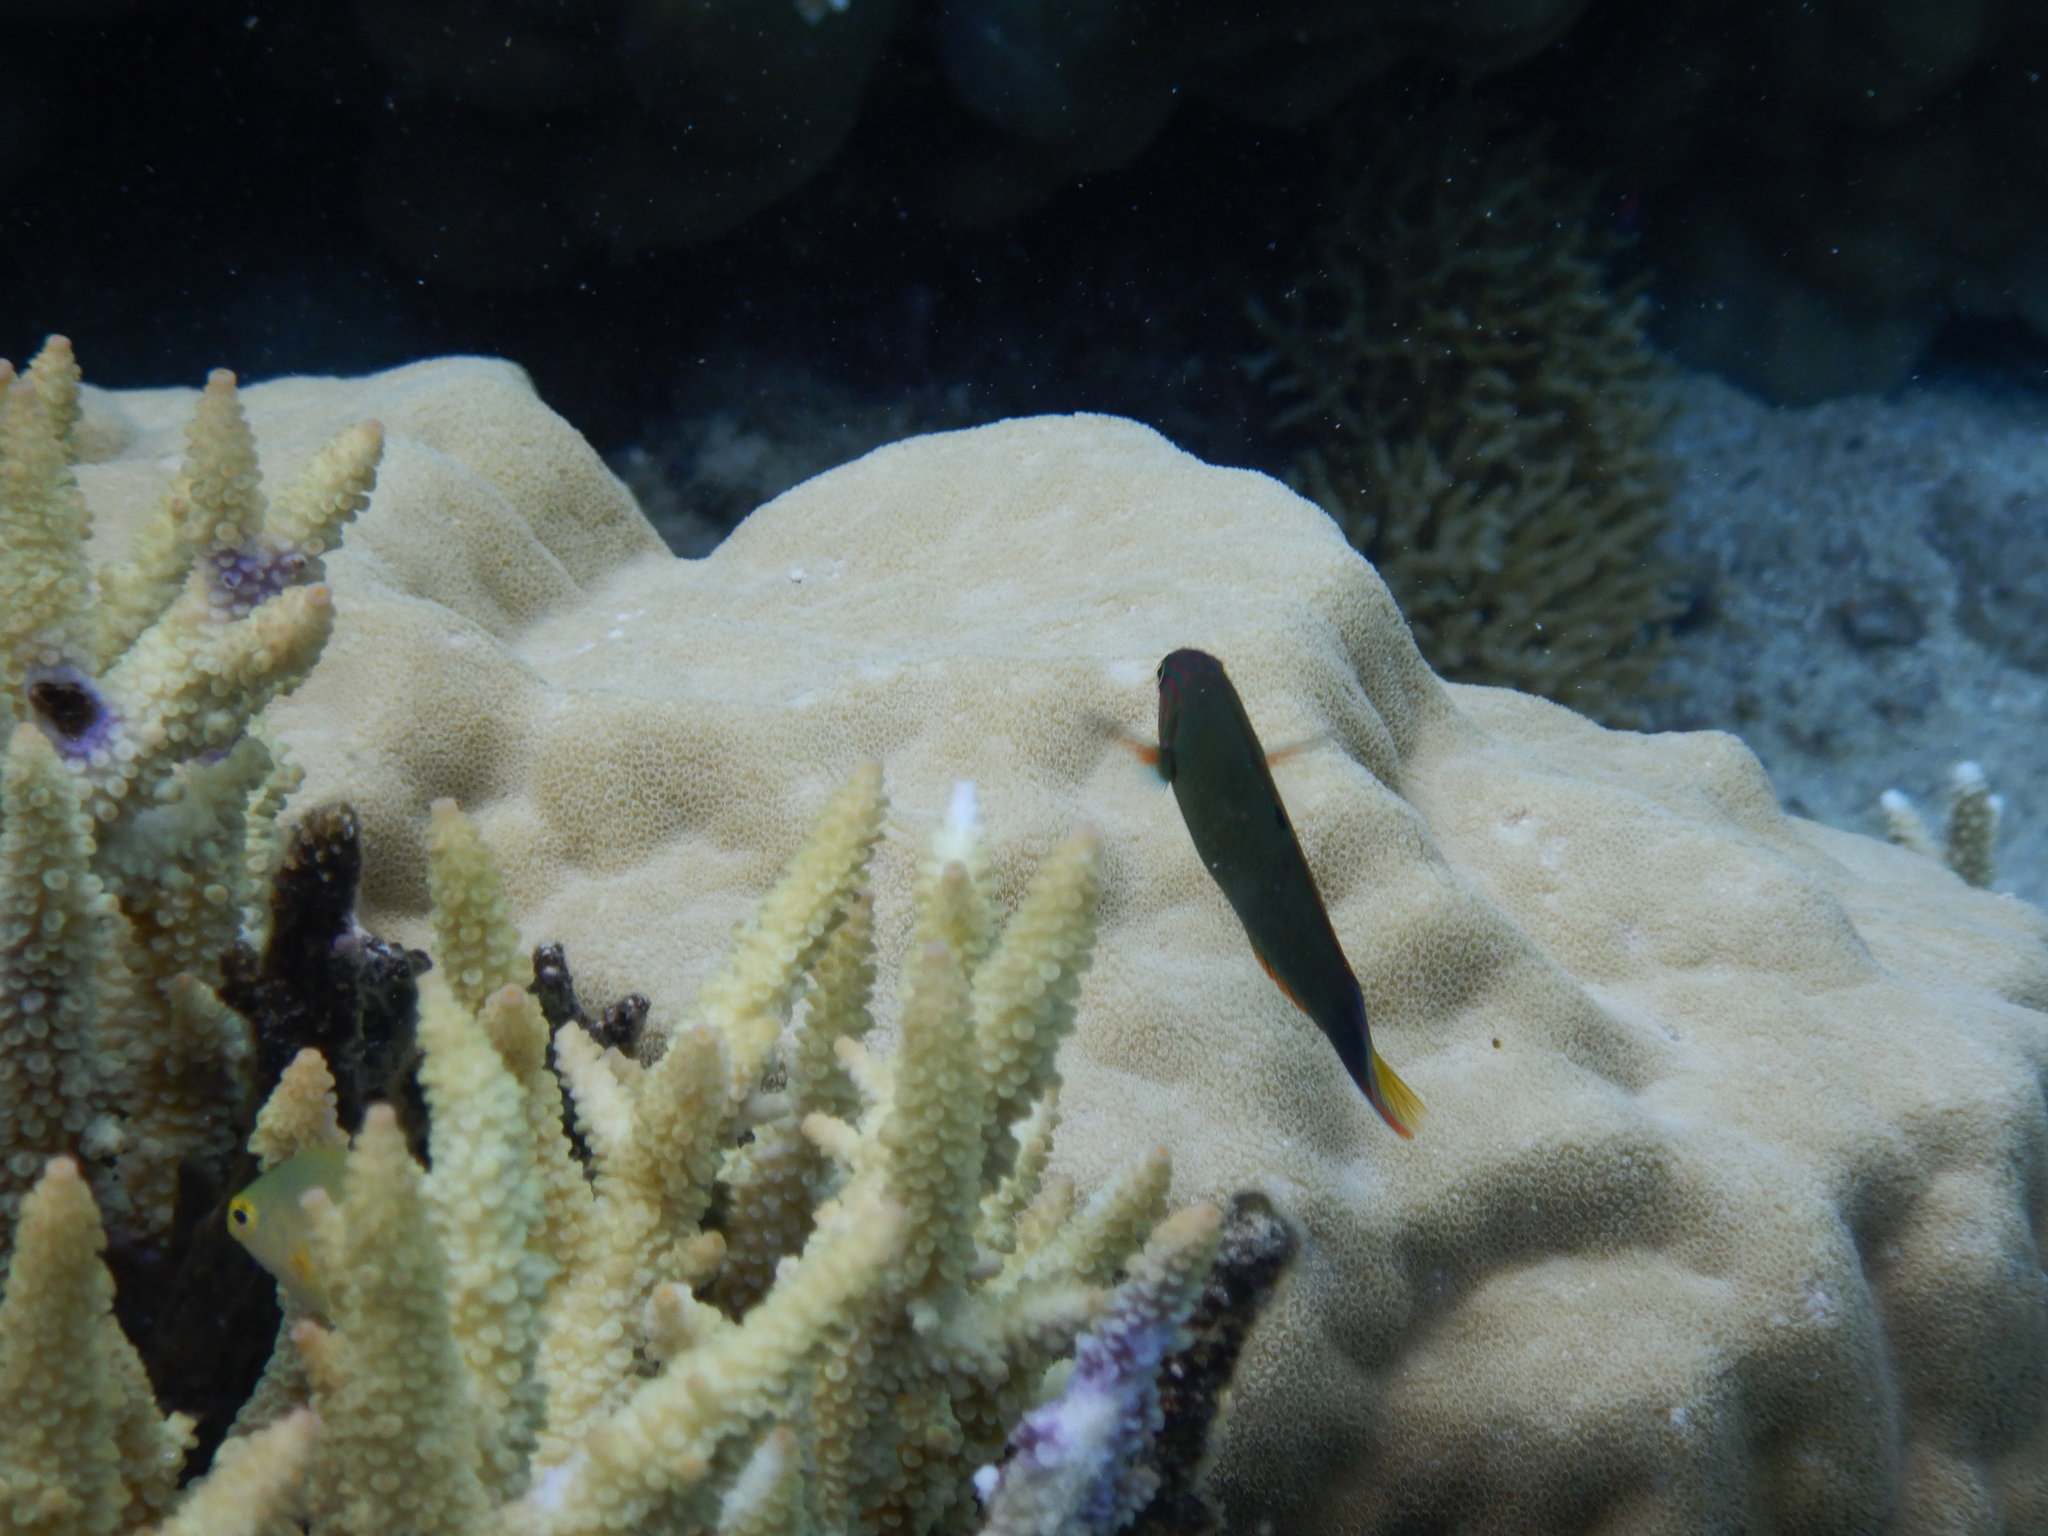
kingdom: Animalia
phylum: Chordata
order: Perciformes
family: Labridae
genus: Thalassoma
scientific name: Thalassoma lunare
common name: Blue wrasse
